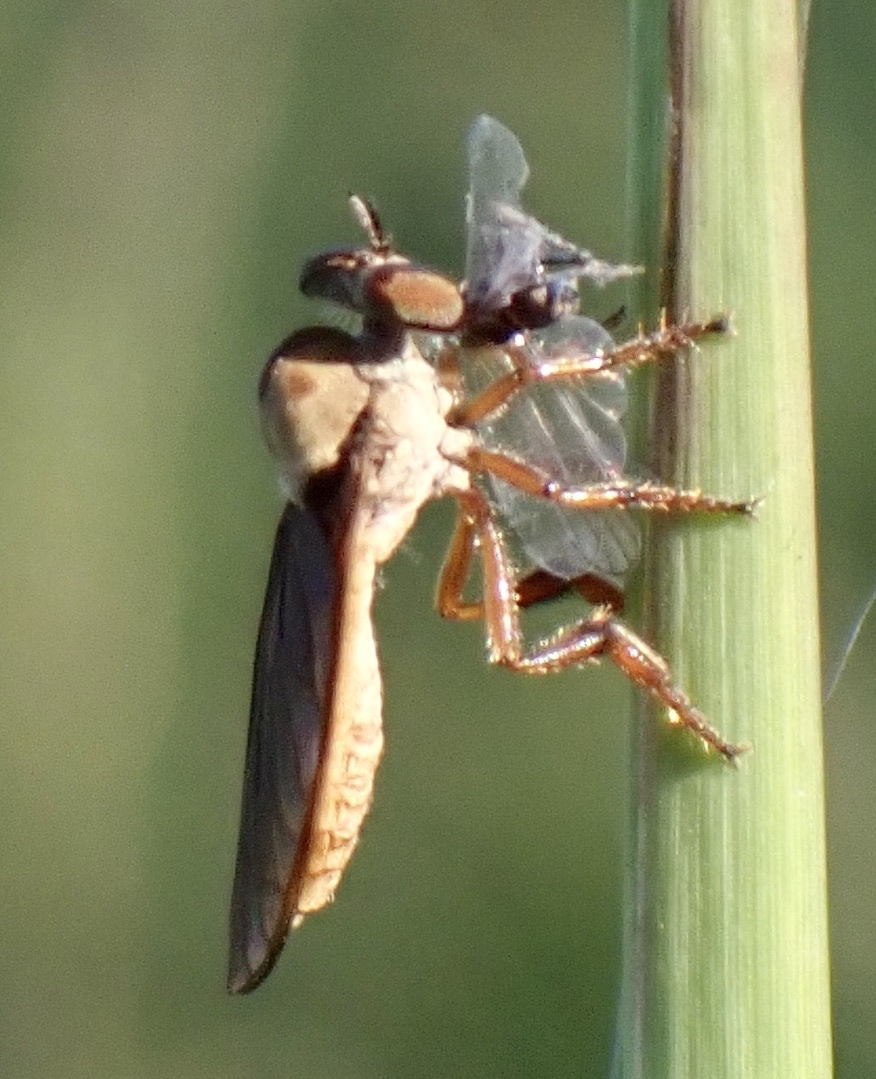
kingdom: Animalia
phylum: Arthropoda
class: Insecta
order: Diptera
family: Asilidae
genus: Holcocephala
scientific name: Holcocephala abdominalis
